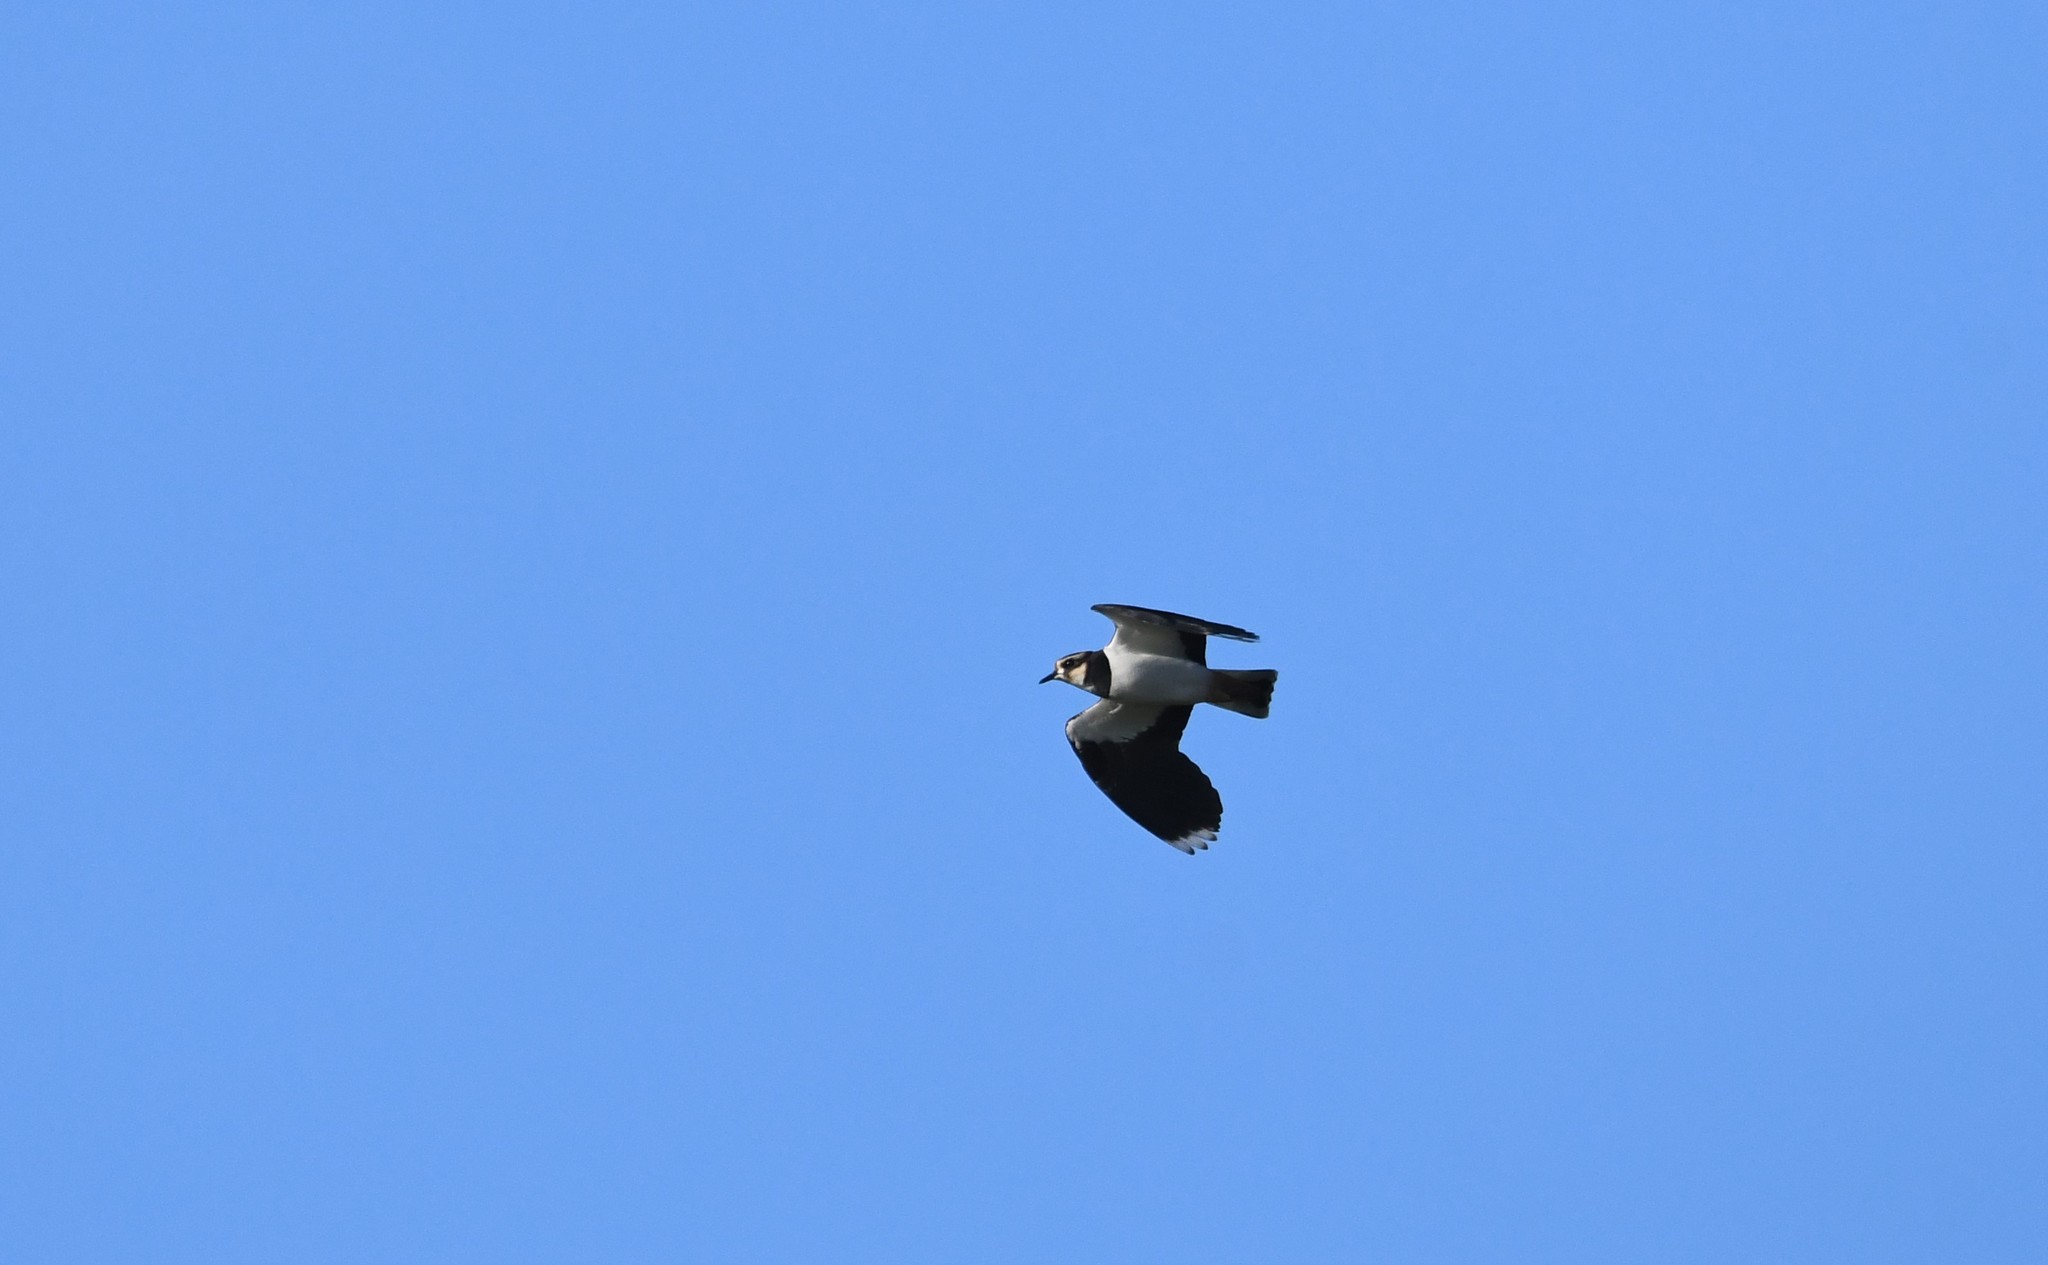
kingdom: Animalia
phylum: Chordata
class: Aves
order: Charadriiformes
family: Charadriidae
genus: Vanellus
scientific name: Vanellus vanellus
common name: Northern lapwing
